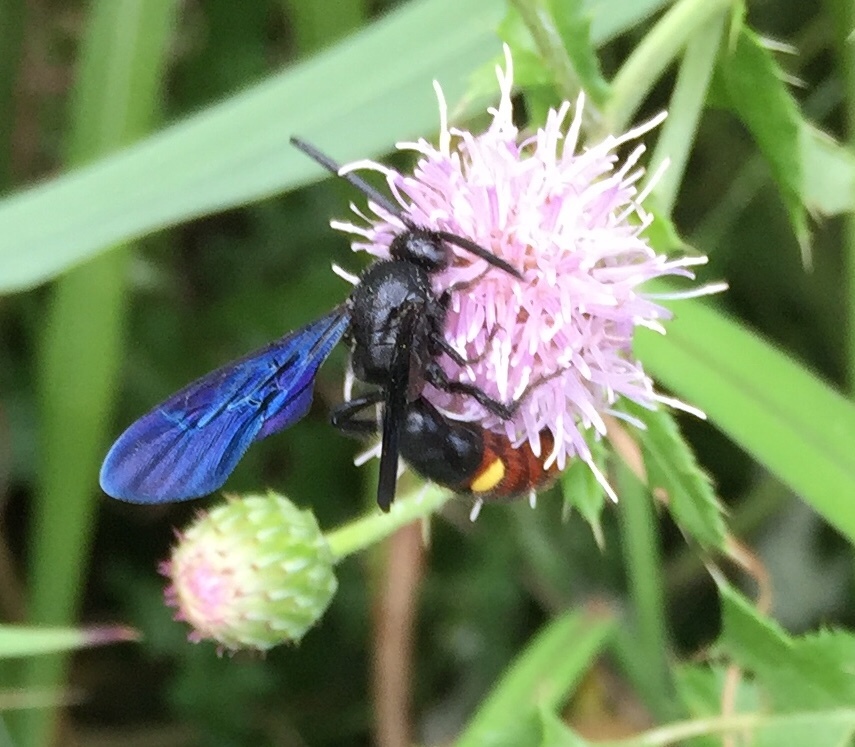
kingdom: Animalia
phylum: Arthropoda
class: Insecta
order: Hymenoptera
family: Scoliidae
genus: Scolia
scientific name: Scolia dubia
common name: Blue-winged scoliid wasp
